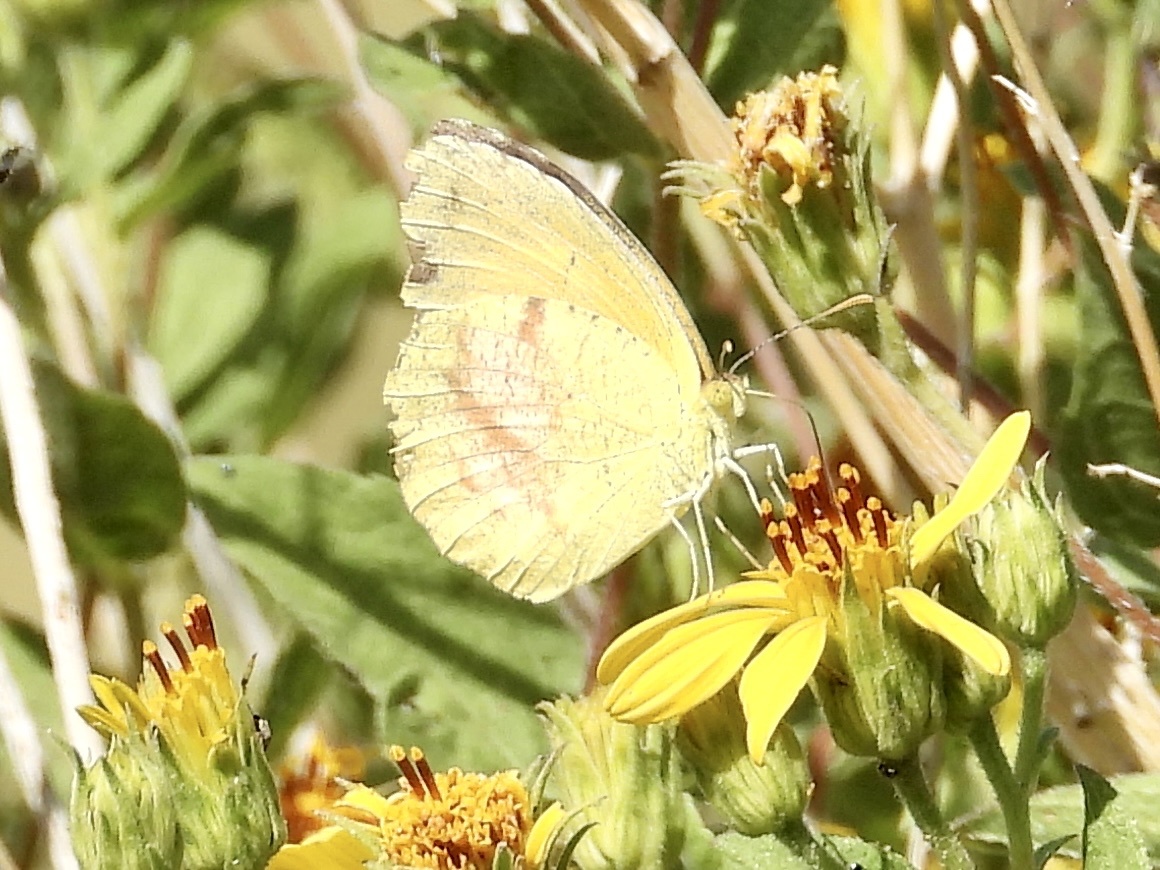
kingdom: Animalia
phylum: Arthropoda
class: Insecta
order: Lepidoptera
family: Pieridae
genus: Abaeis
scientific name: Abaeis nicippe
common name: Sleepy orange
